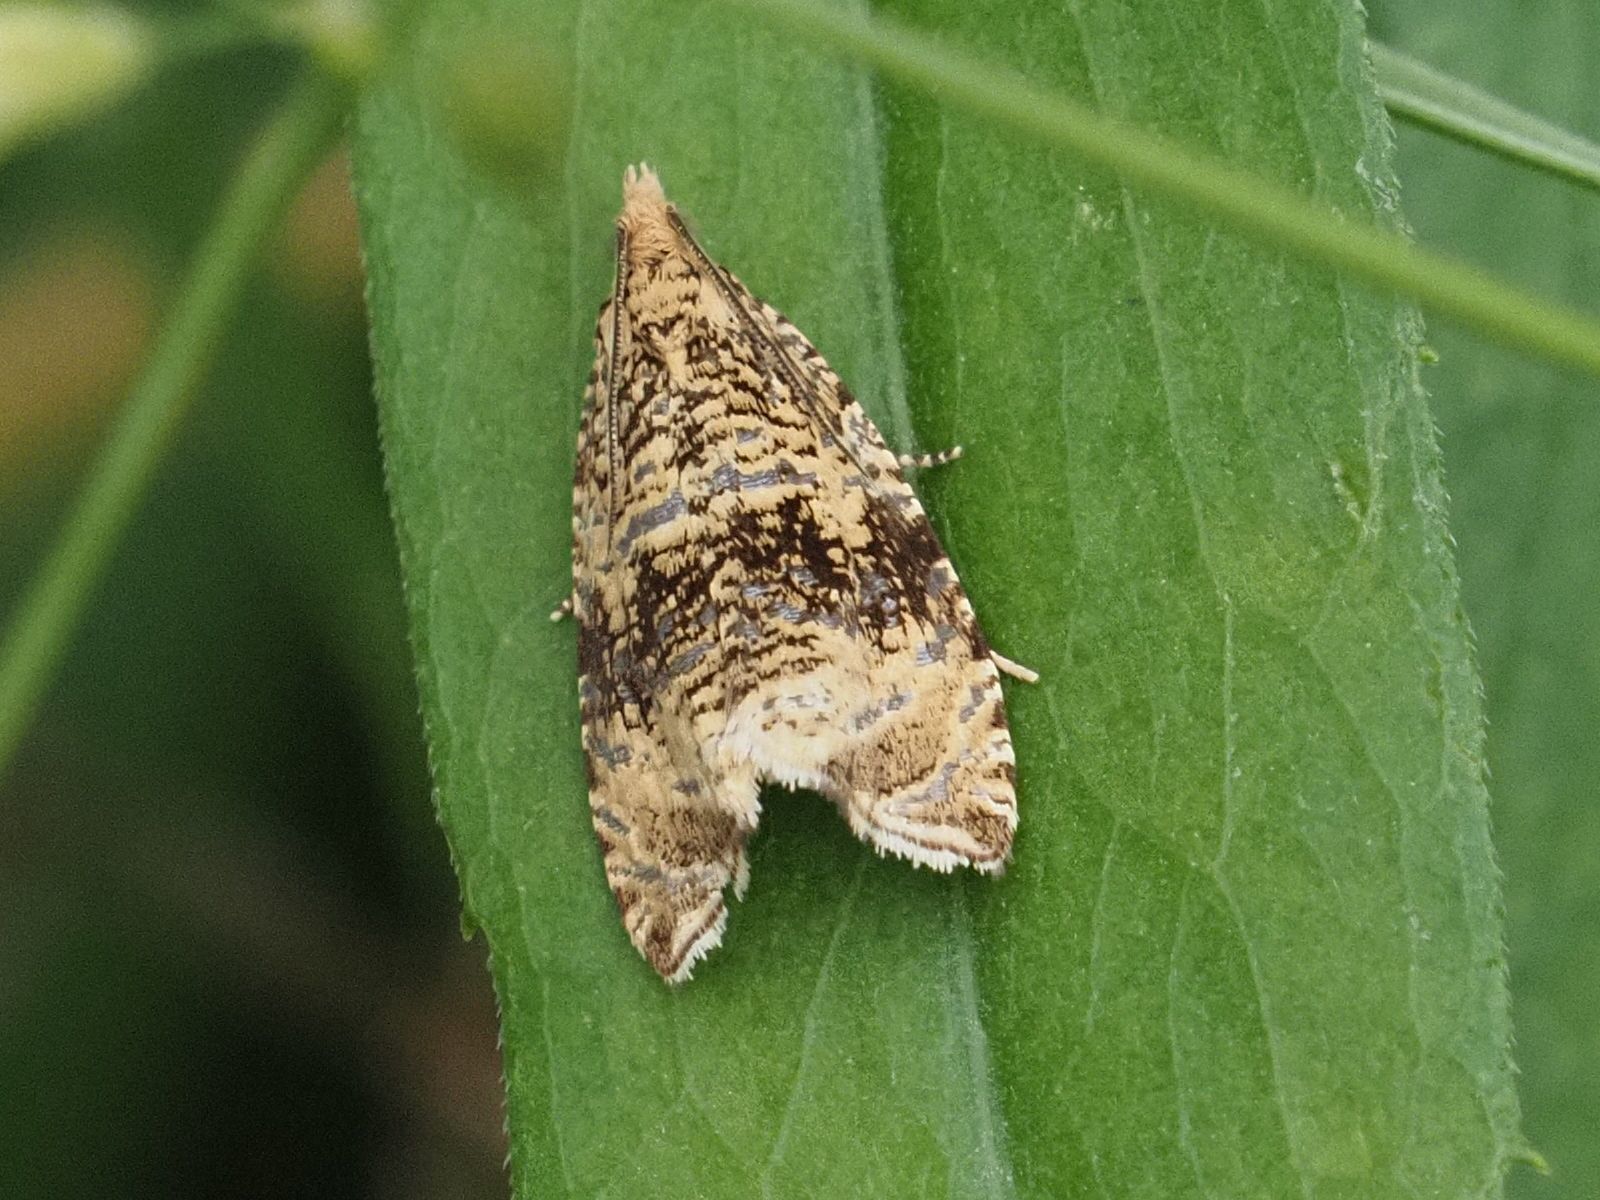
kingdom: Animalia
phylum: Arthropoda
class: Insecta
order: Lepidoptera
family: Tortricidae
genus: Syricoris
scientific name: Syricoris lacunana
